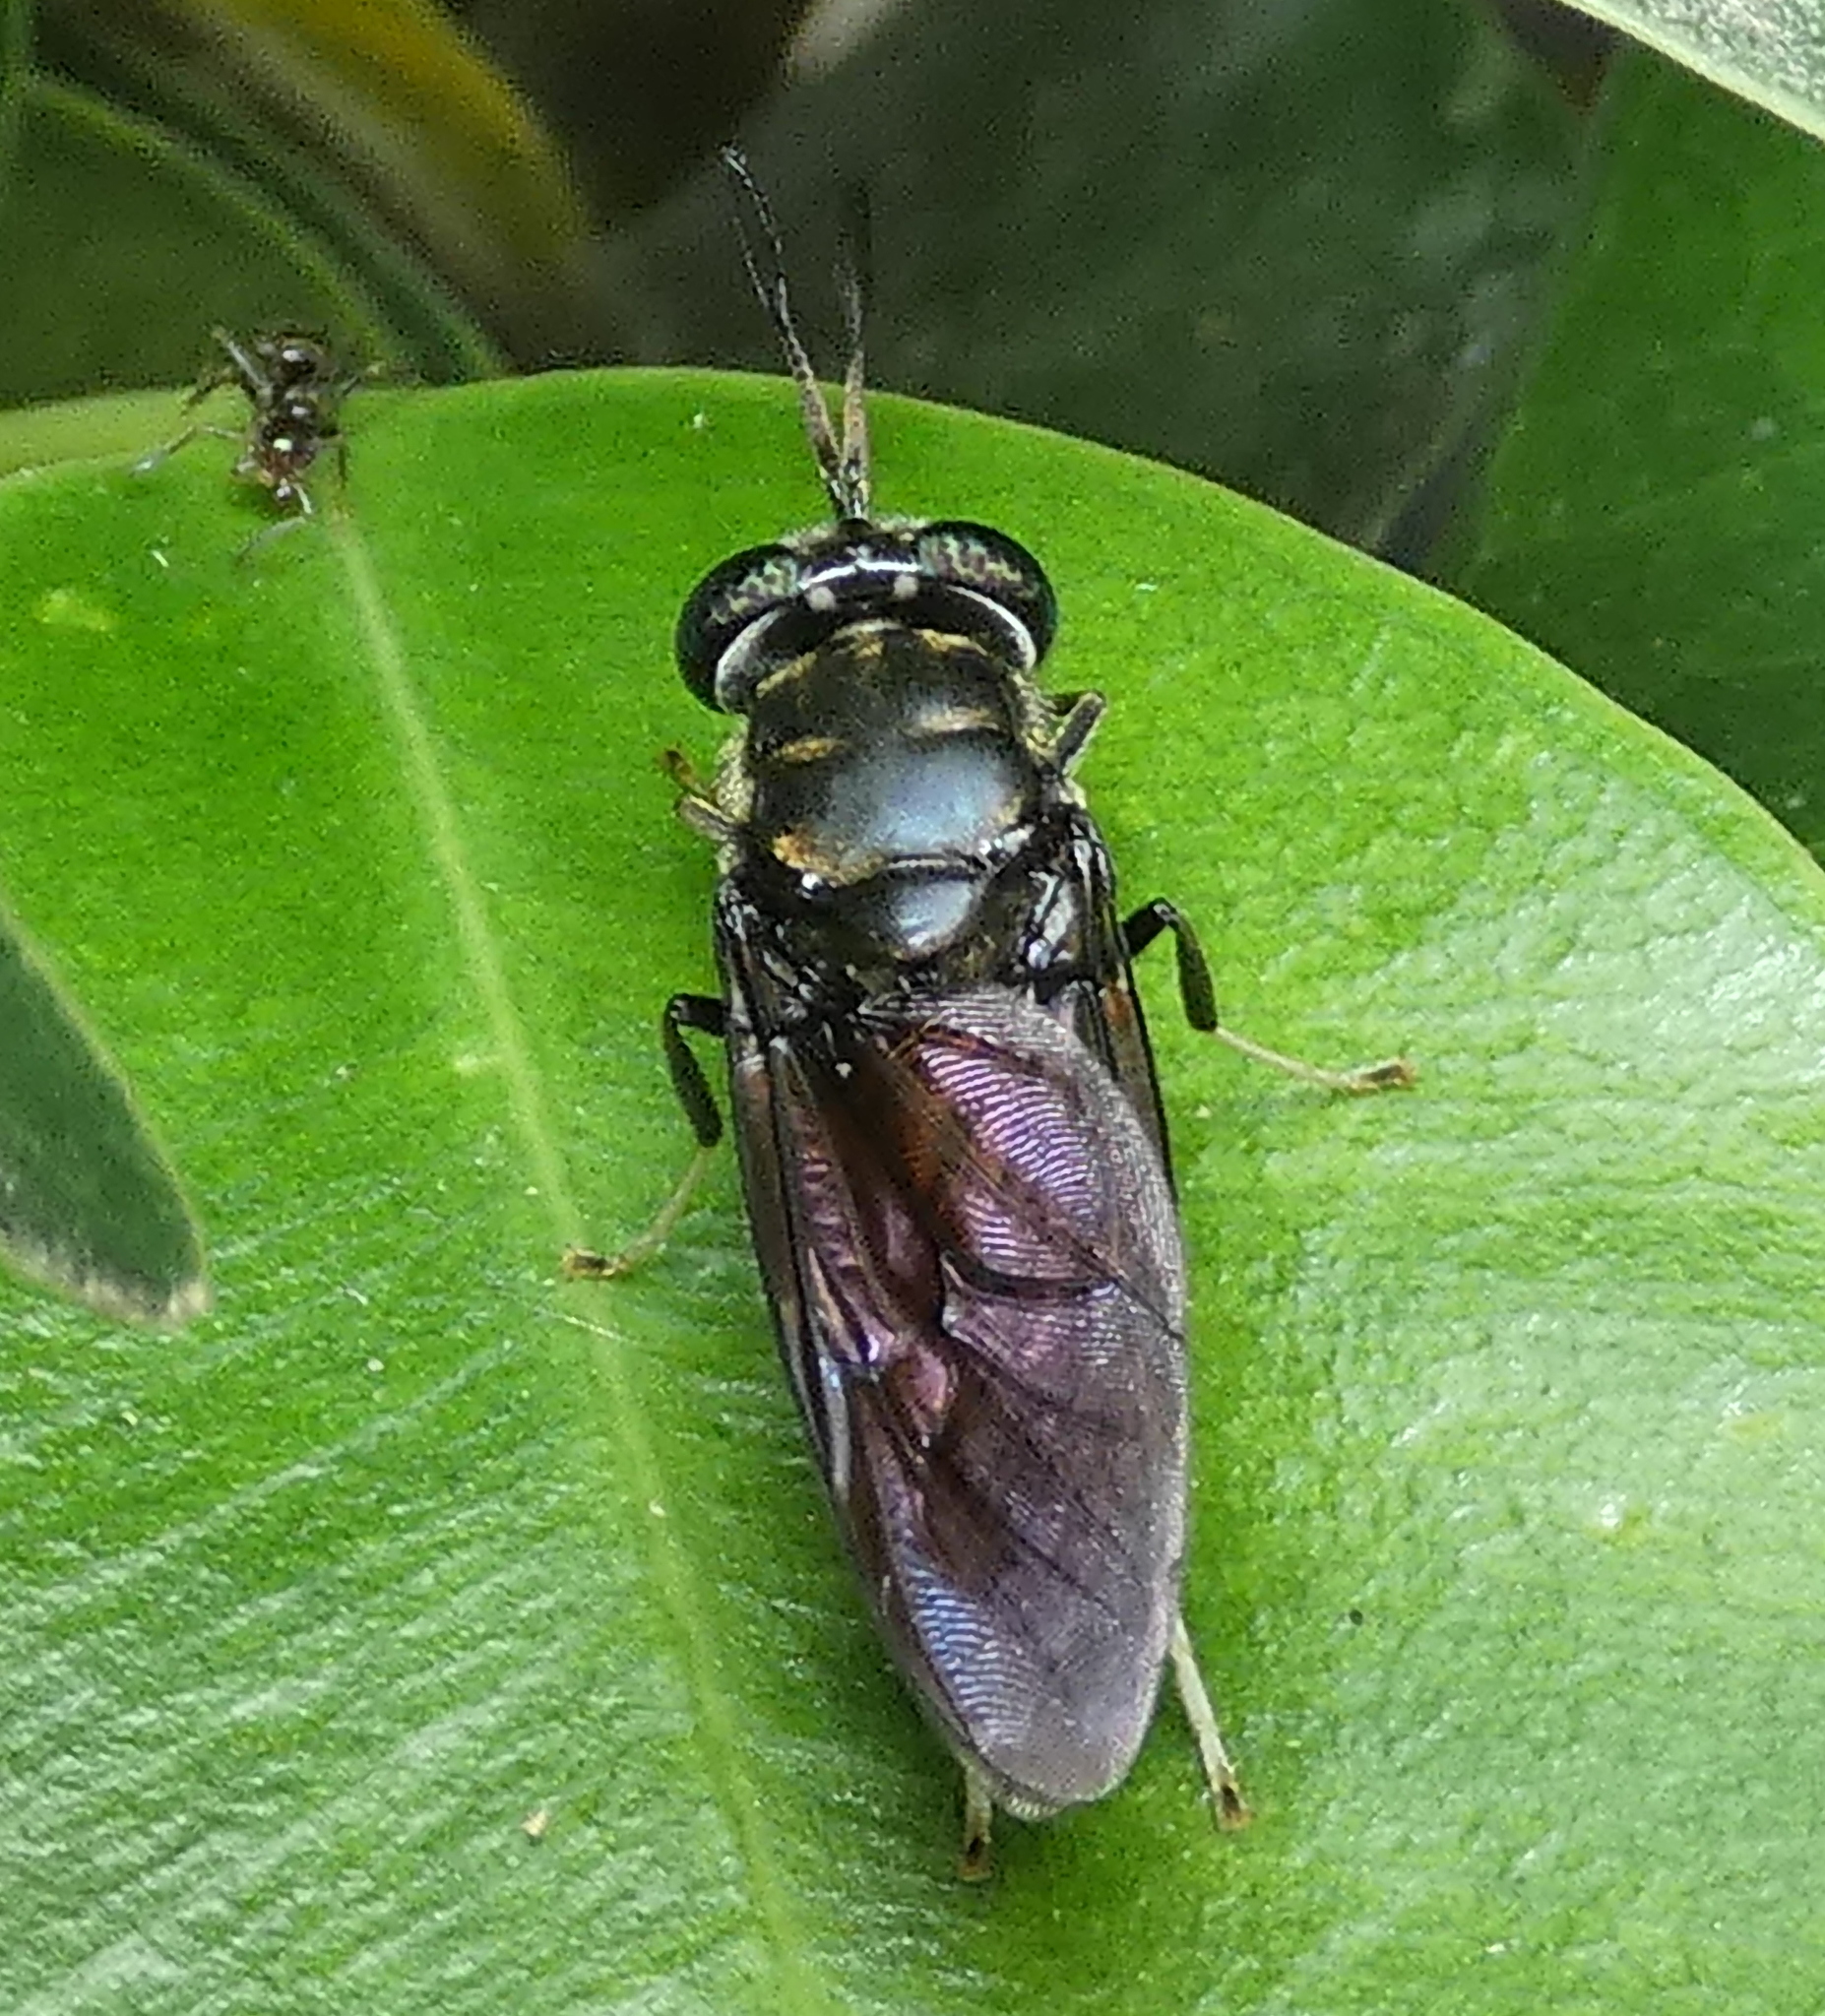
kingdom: Animalia
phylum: Arthropoda
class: Insecta
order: Diptera
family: Stratiomyidae
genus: Hermetia
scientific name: Hermetia illucens
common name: Black soldier fly
